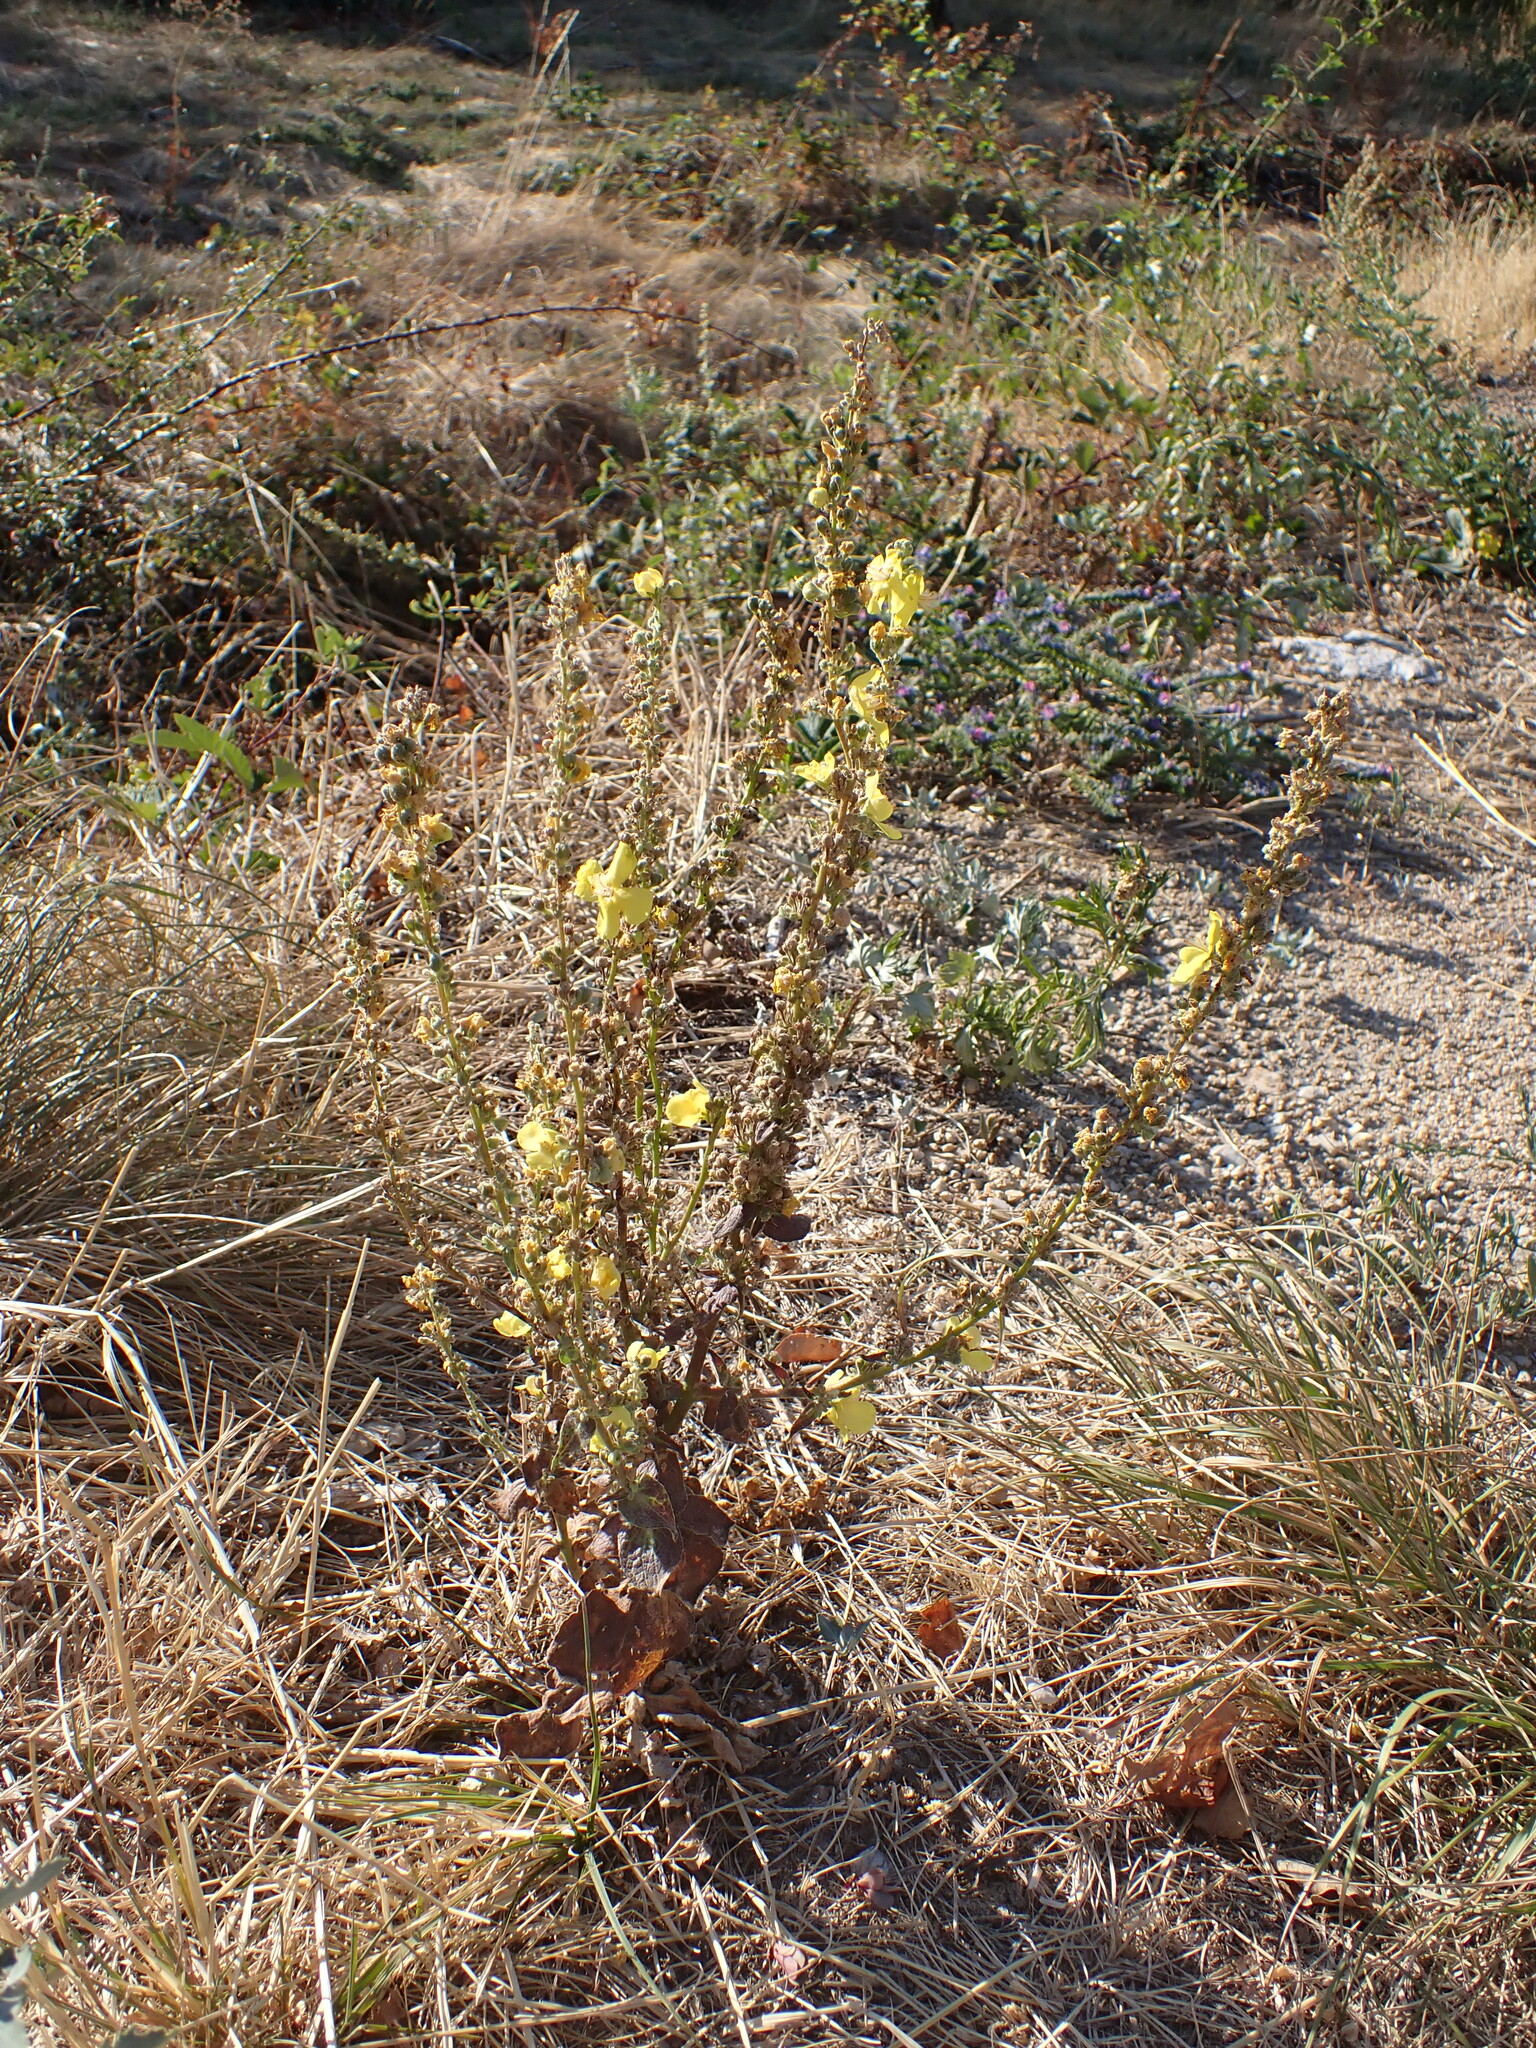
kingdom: Plantae
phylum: Tracheophyta
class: Magnoliopsida
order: Lamiales
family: Scrophulariaceae
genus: Verbascum
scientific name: Verbascum lychnitis
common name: White mullein
